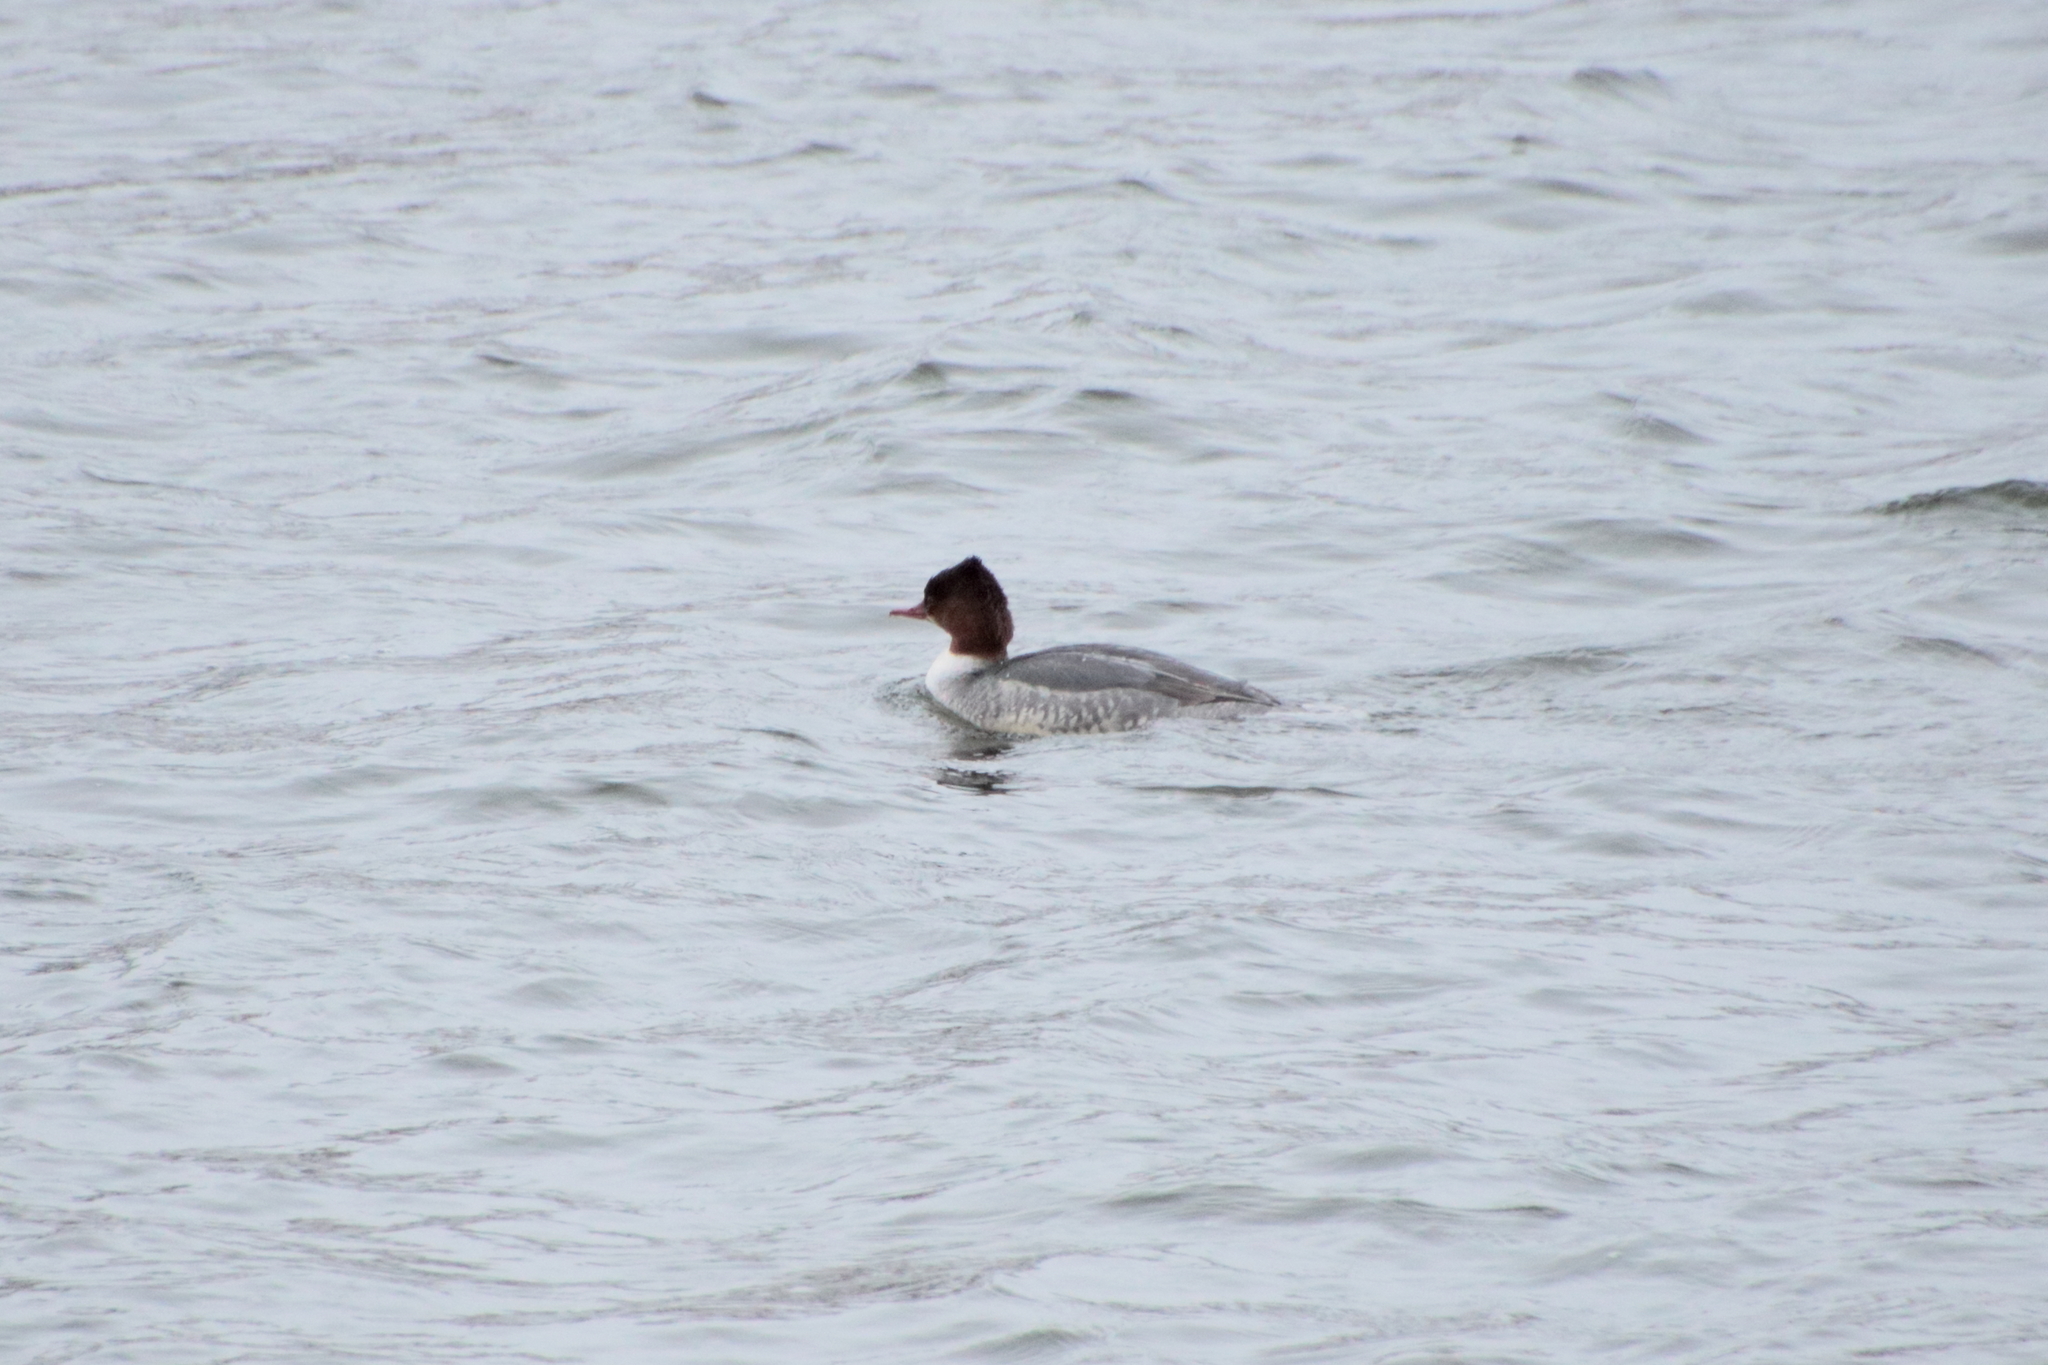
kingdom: Animalia
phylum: Chordata
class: Aves
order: Anseriformes
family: Anatidae
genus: Mergus
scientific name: Mergus merganser
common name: Common merganser
